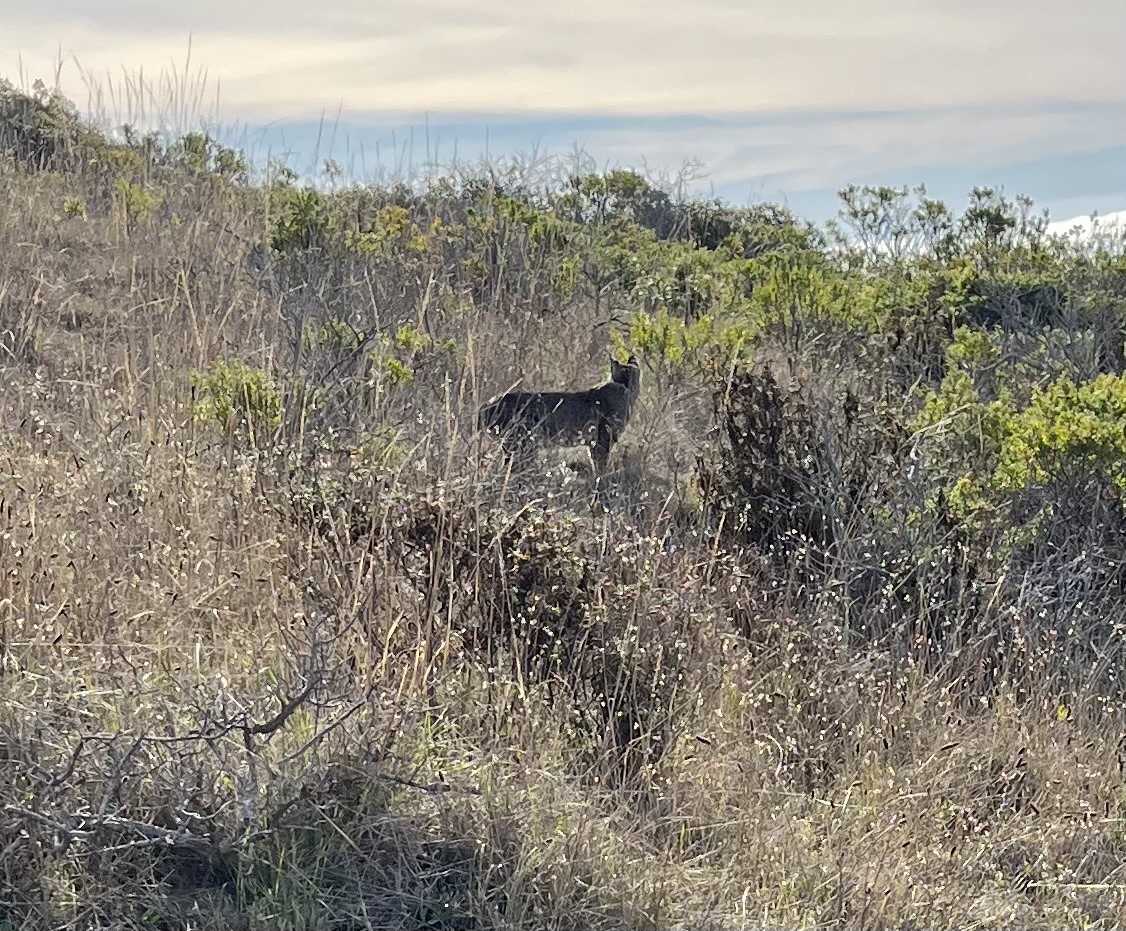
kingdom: Animalia
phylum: Chordata
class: Mammalia
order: Carnivora
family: Felidae
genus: Lynx
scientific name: Lynx rufus
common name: Bobcat
